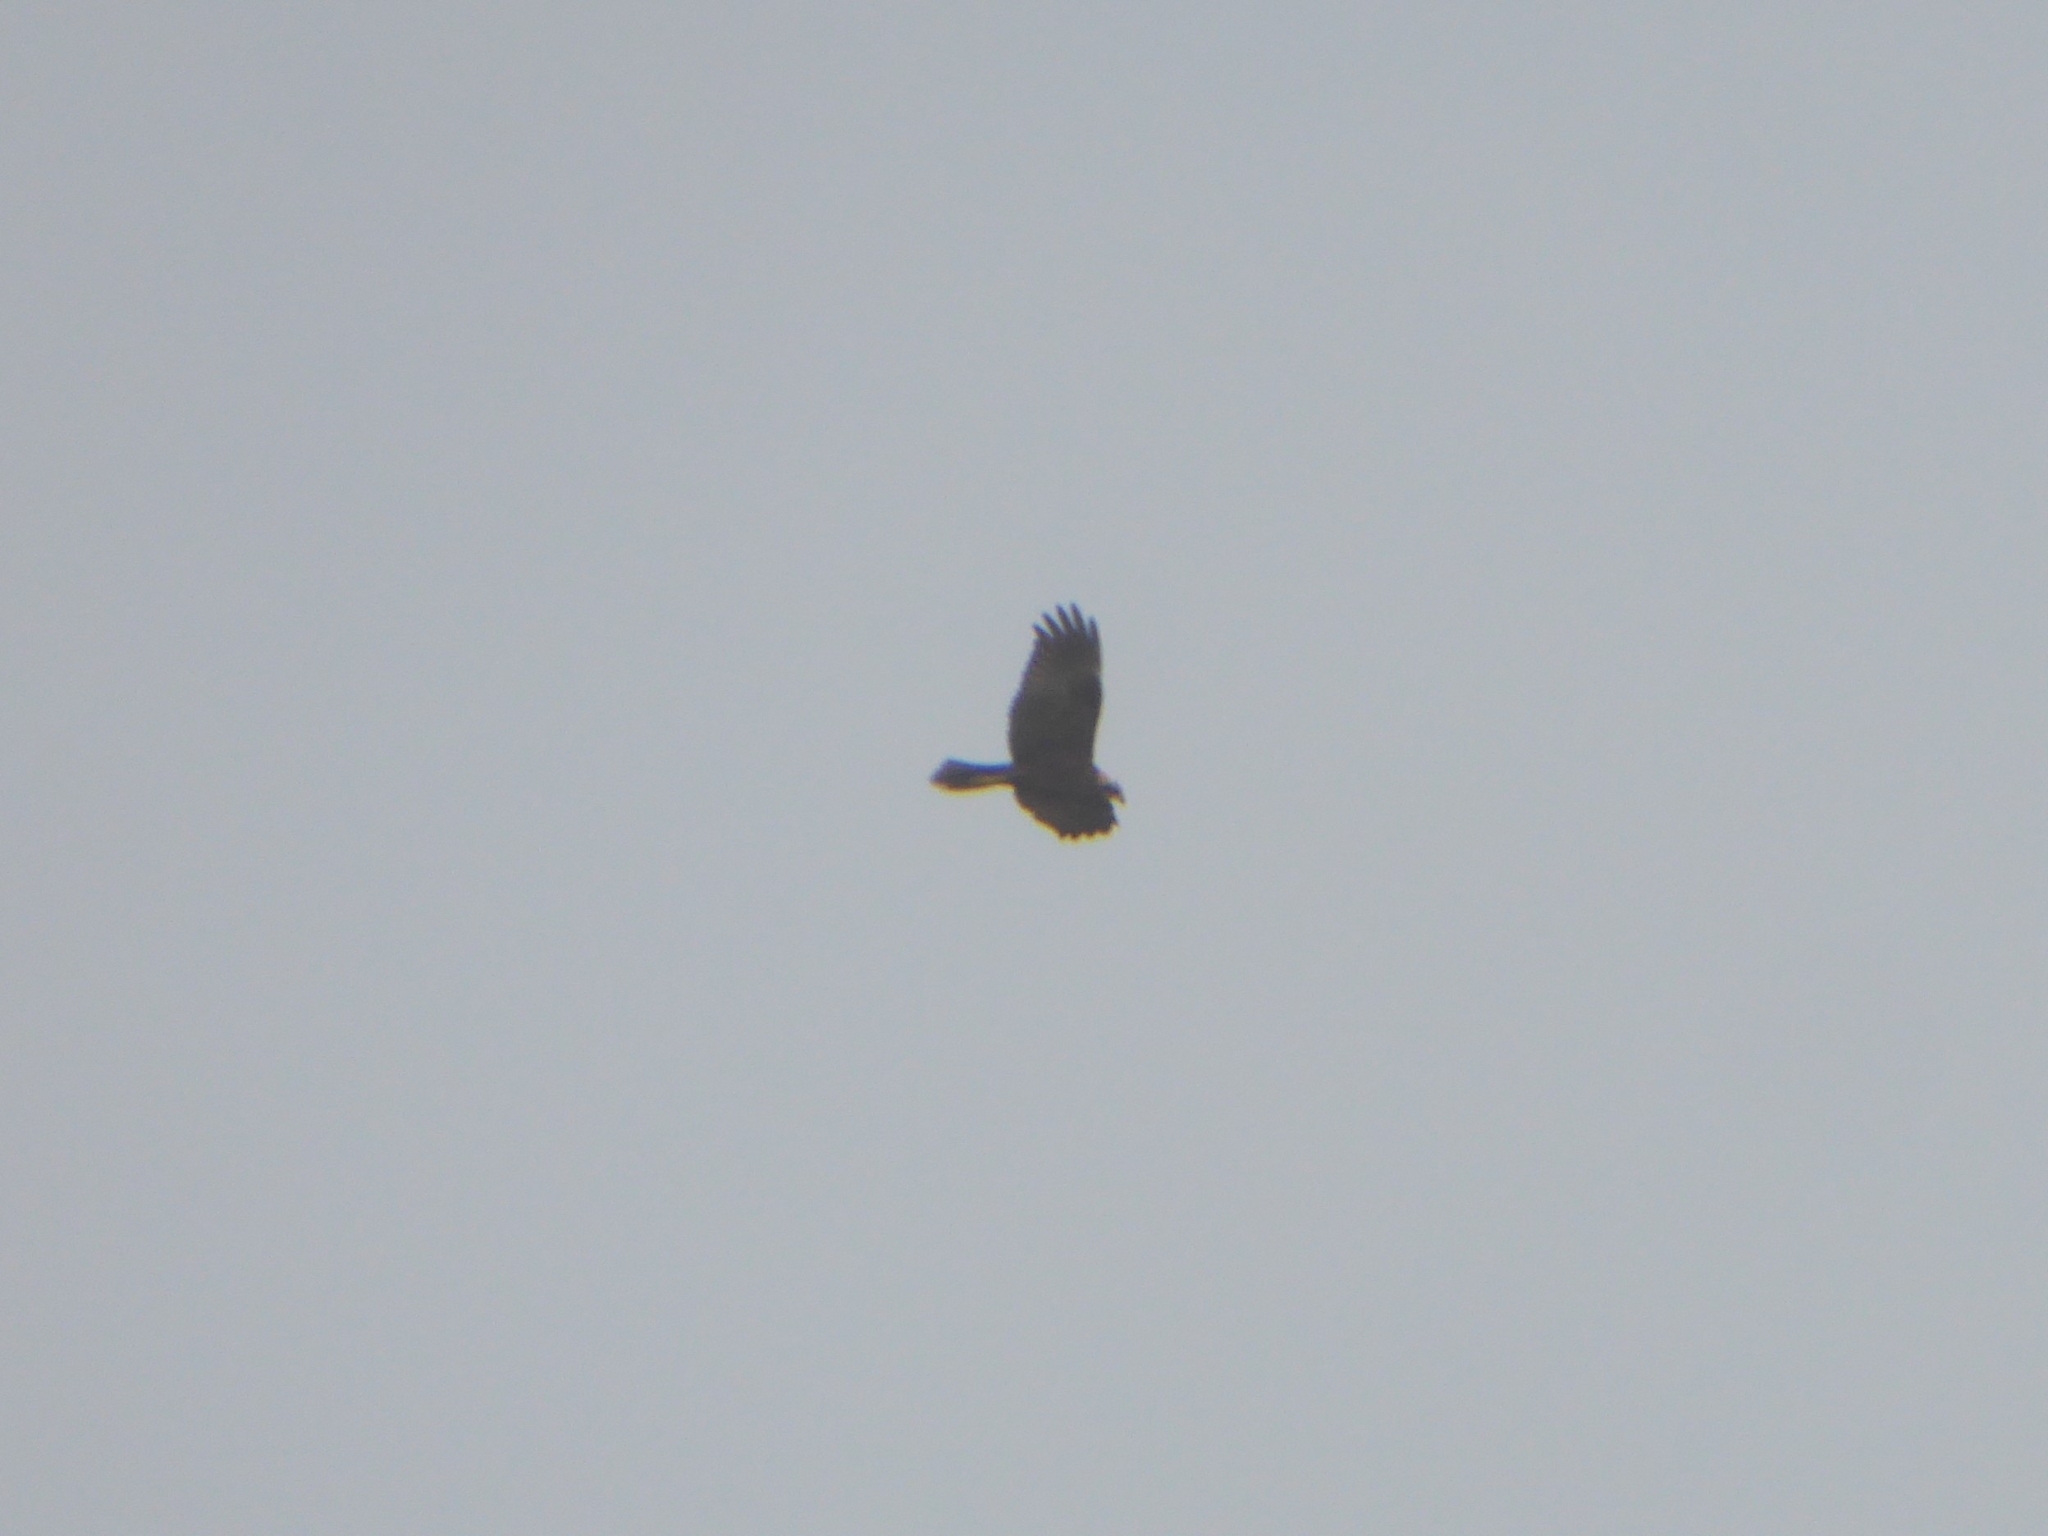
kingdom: Animalia
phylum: Chordata
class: Aves
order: Accipitriformes
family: Accipitridae
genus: Circus
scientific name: Circus aeruginosus
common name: Western marsh harrier
